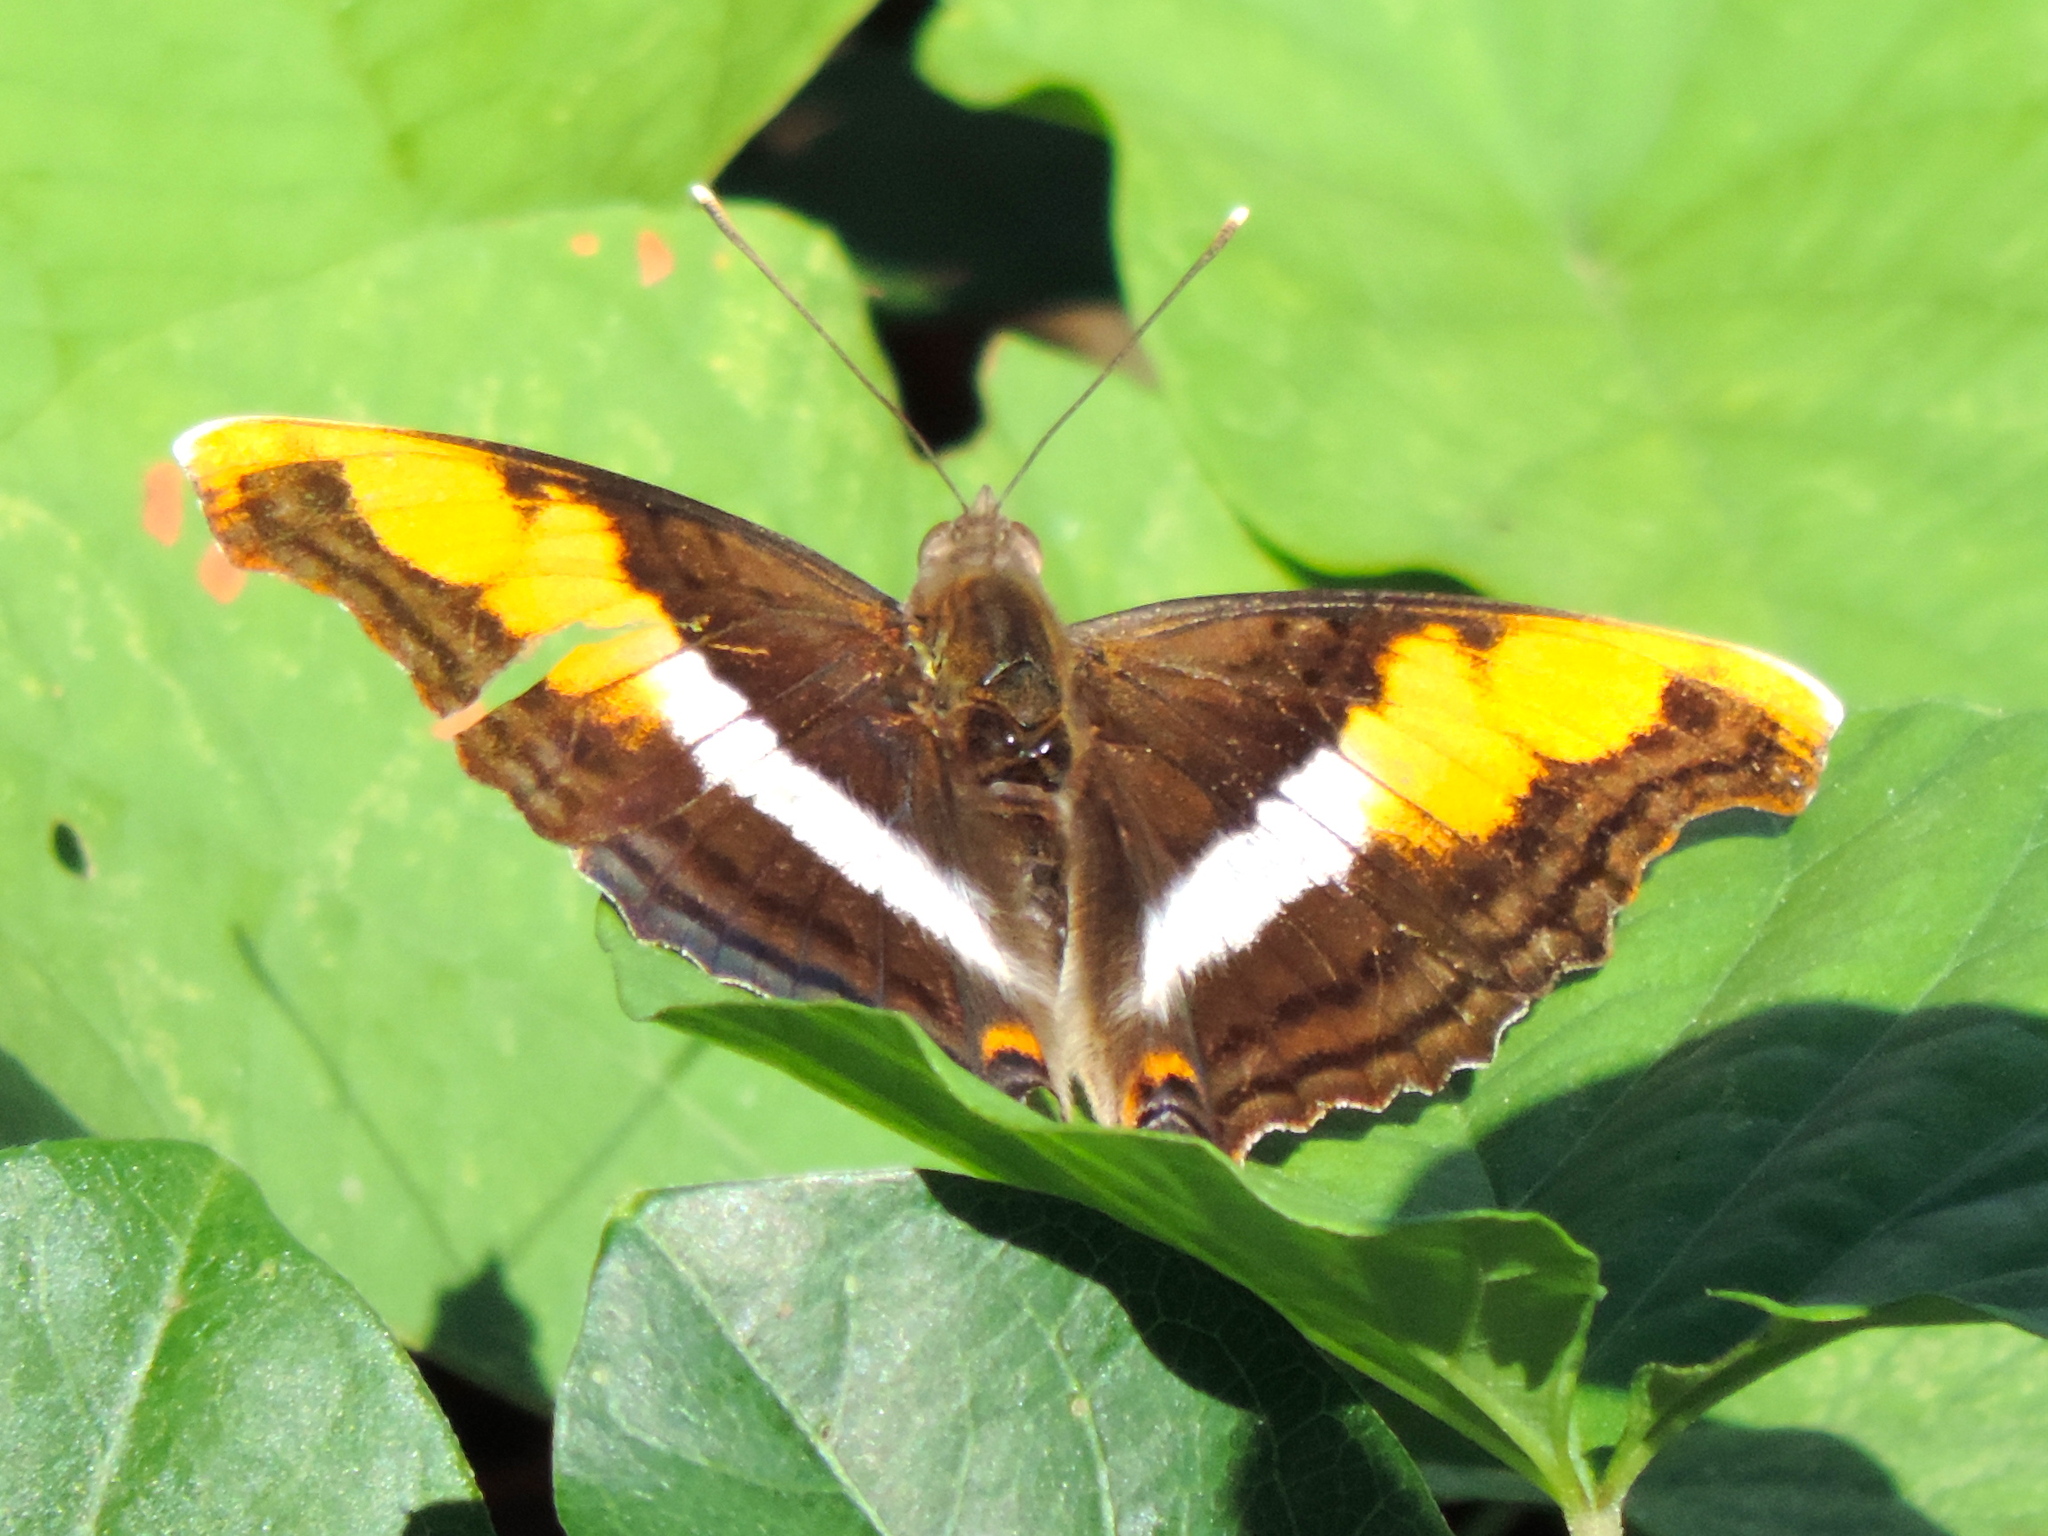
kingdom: Animalia
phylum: Arthropoda
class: Insecta
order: Lepidoptera
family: Nymphalidae
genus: Doxocopa
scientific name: Doxocopa laure
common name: Silver emperor
